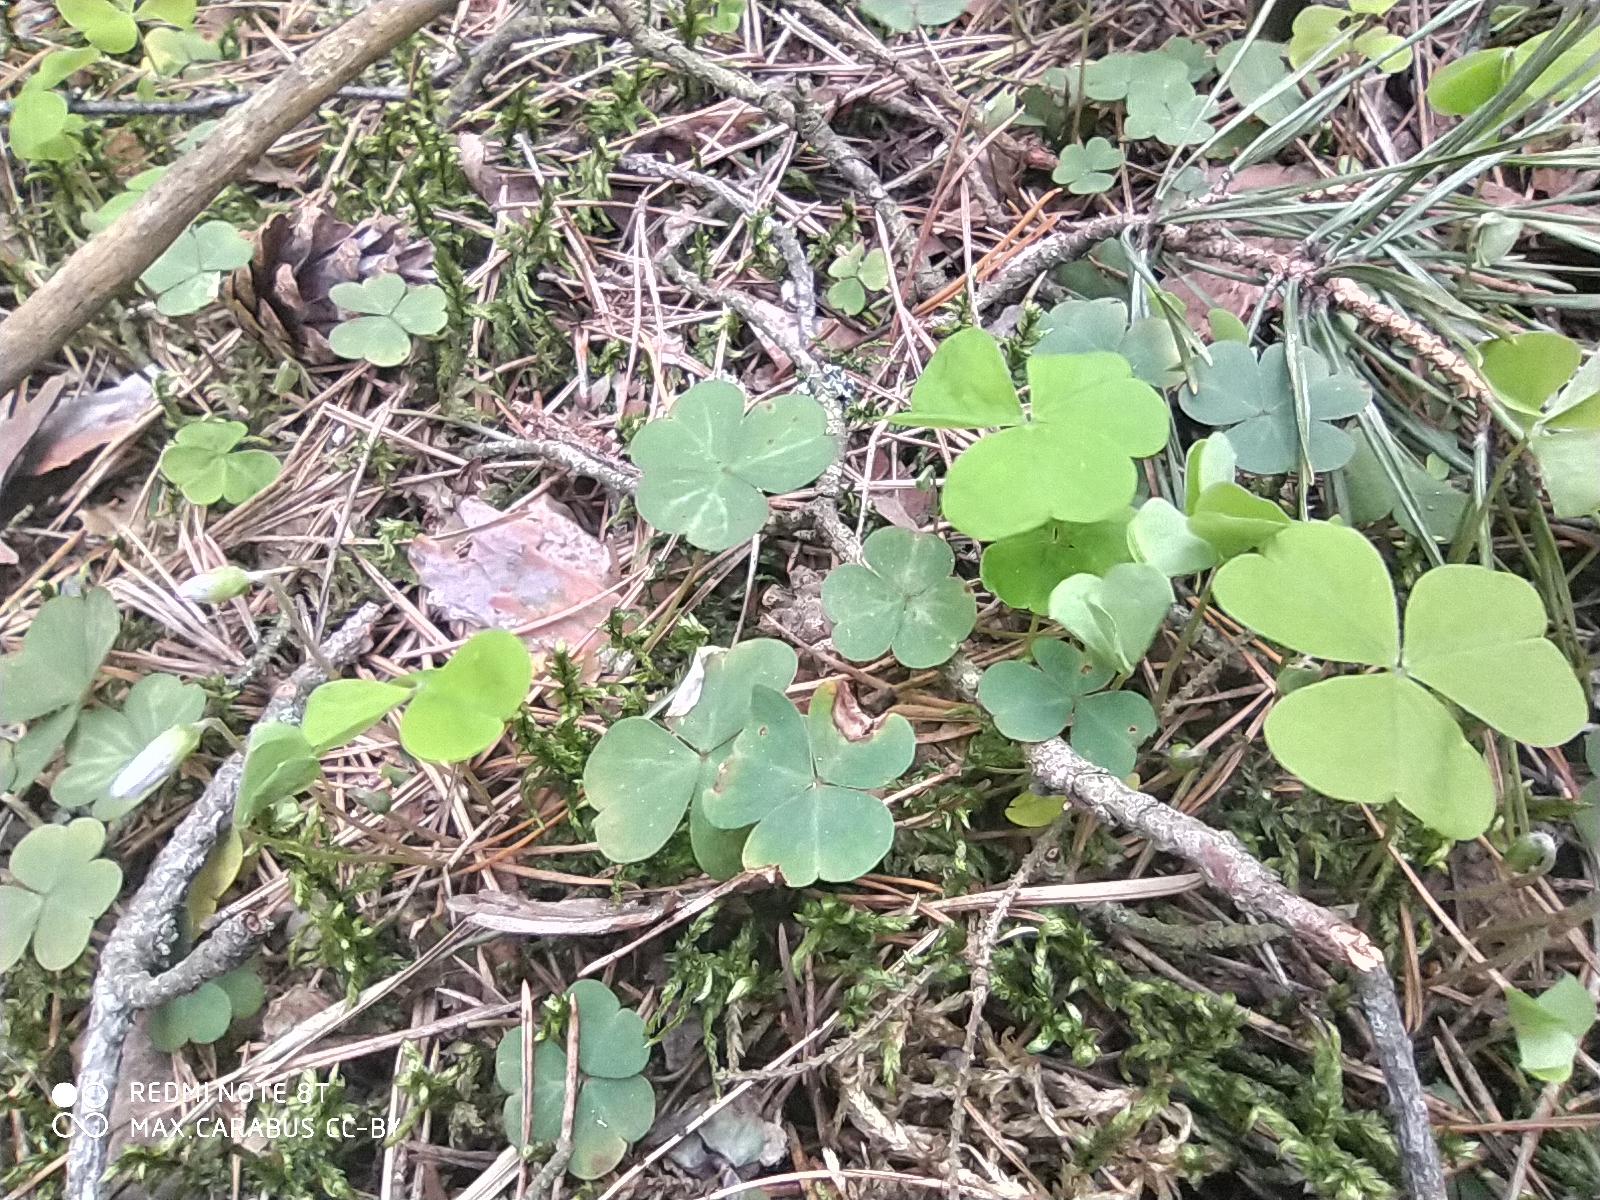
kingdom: Plantae
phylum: Tracheophyta
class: Magnoliopsida
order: Oxalidales
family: Oxalidaceae
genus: Oxalis
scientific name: Oxalis acetosella
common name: Wood-sorrel
